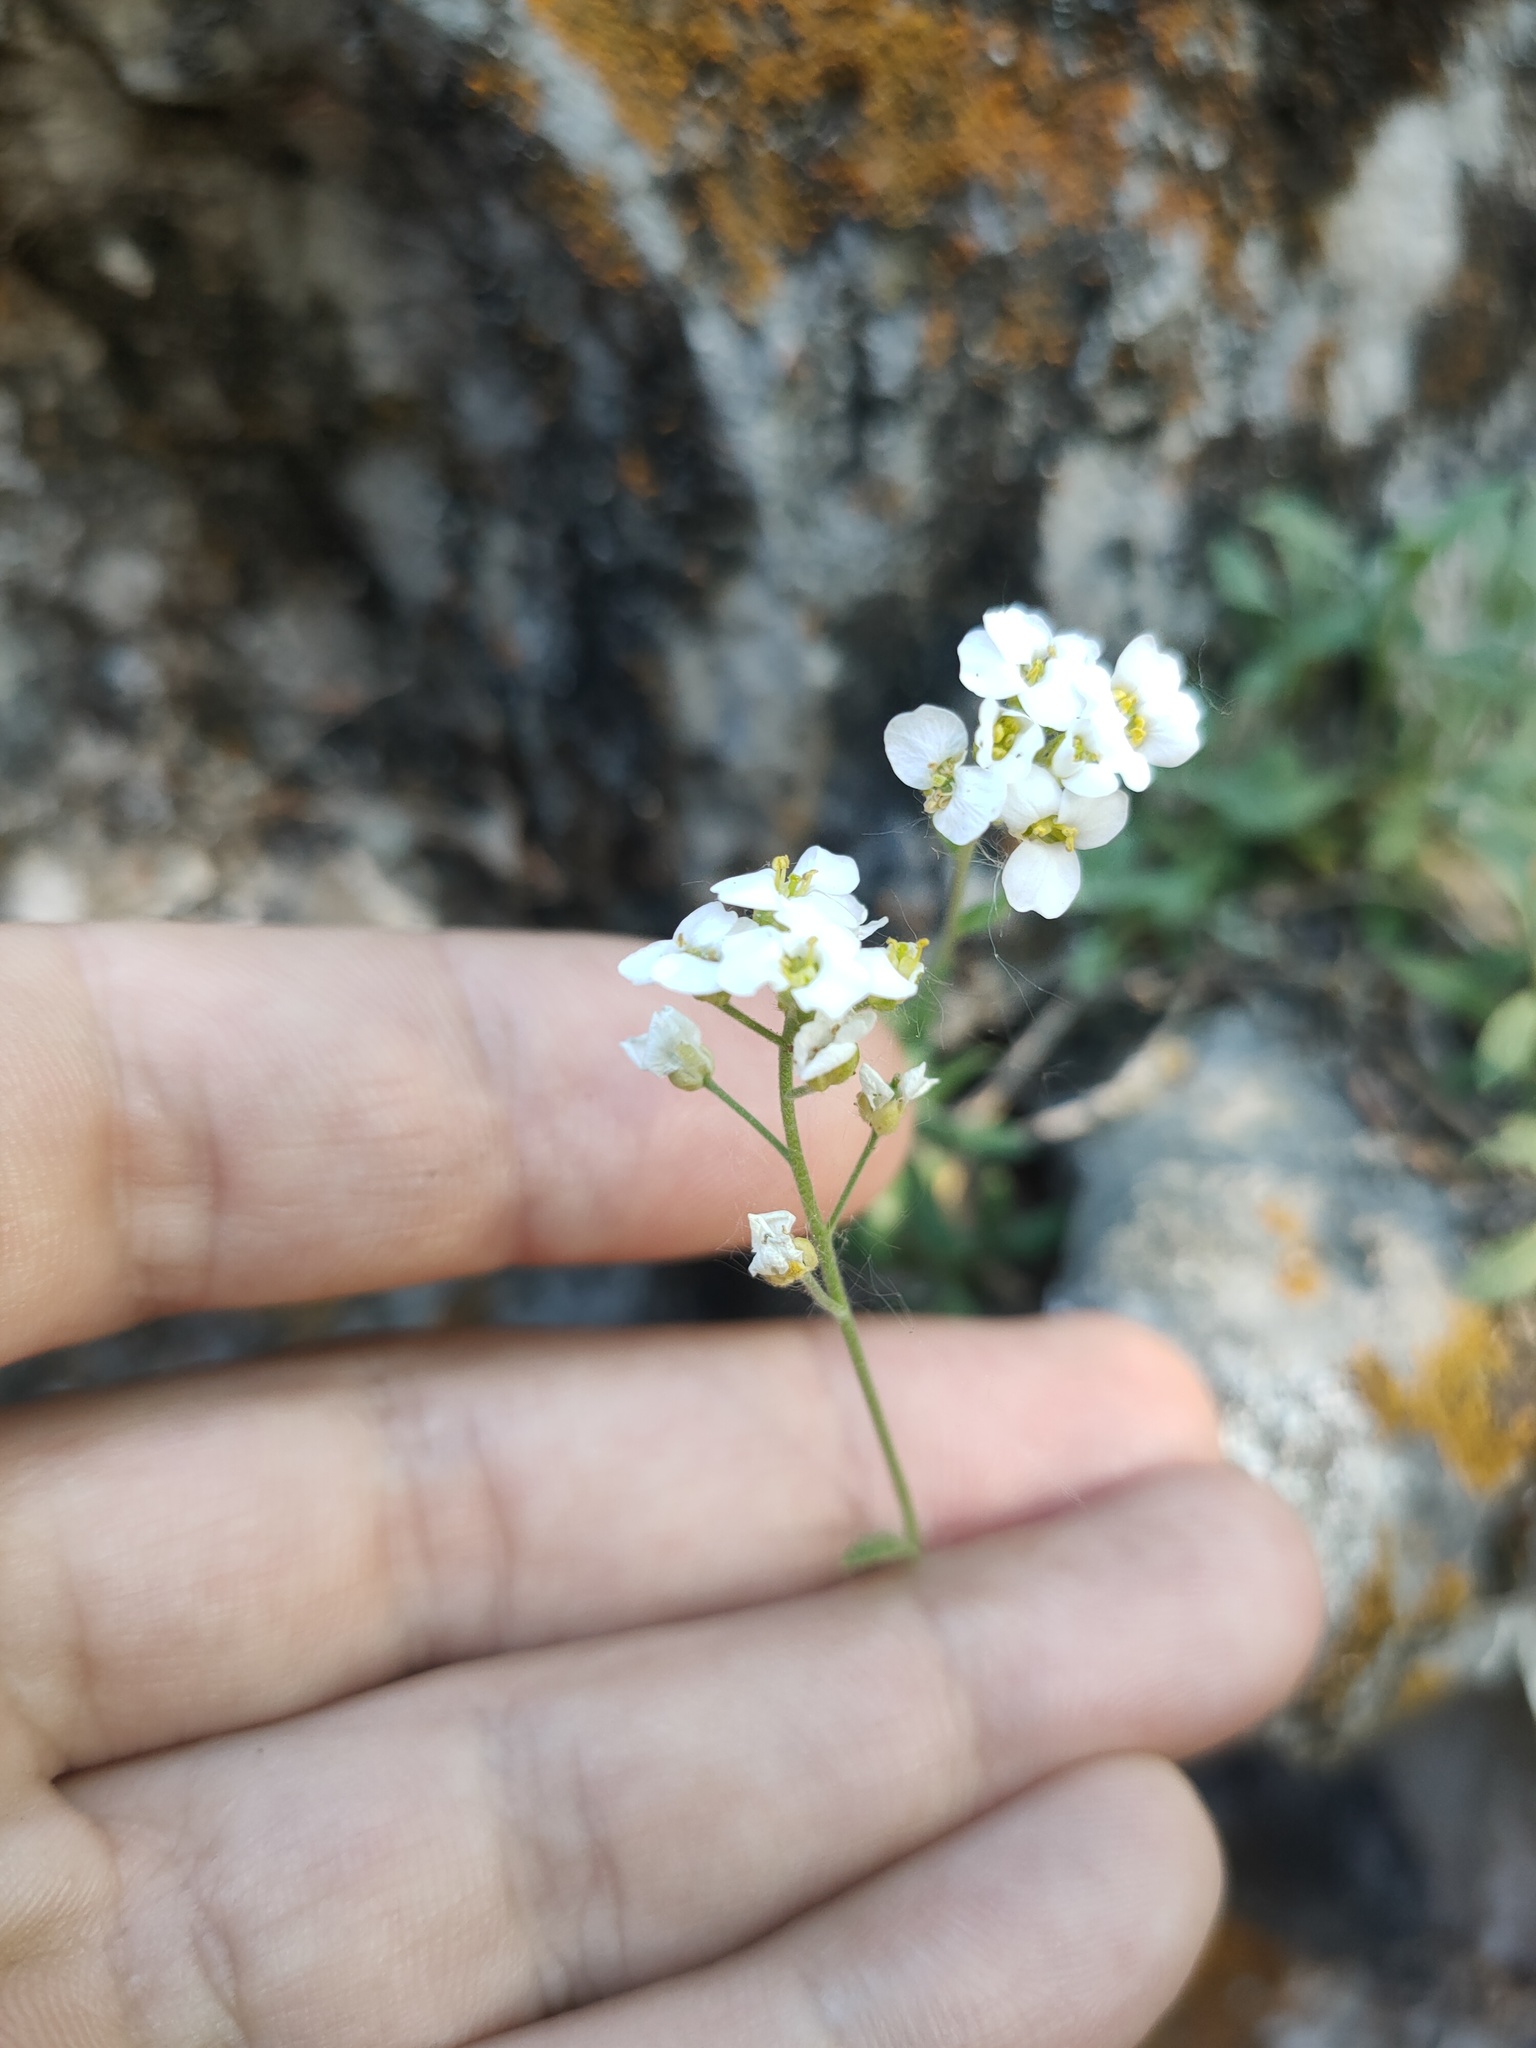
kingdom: Plantae
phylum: Tracheophyta
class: Magnoliopsida
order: Brassicales
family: Brassicaceae
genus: Draba
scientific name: Draba hyperborea
